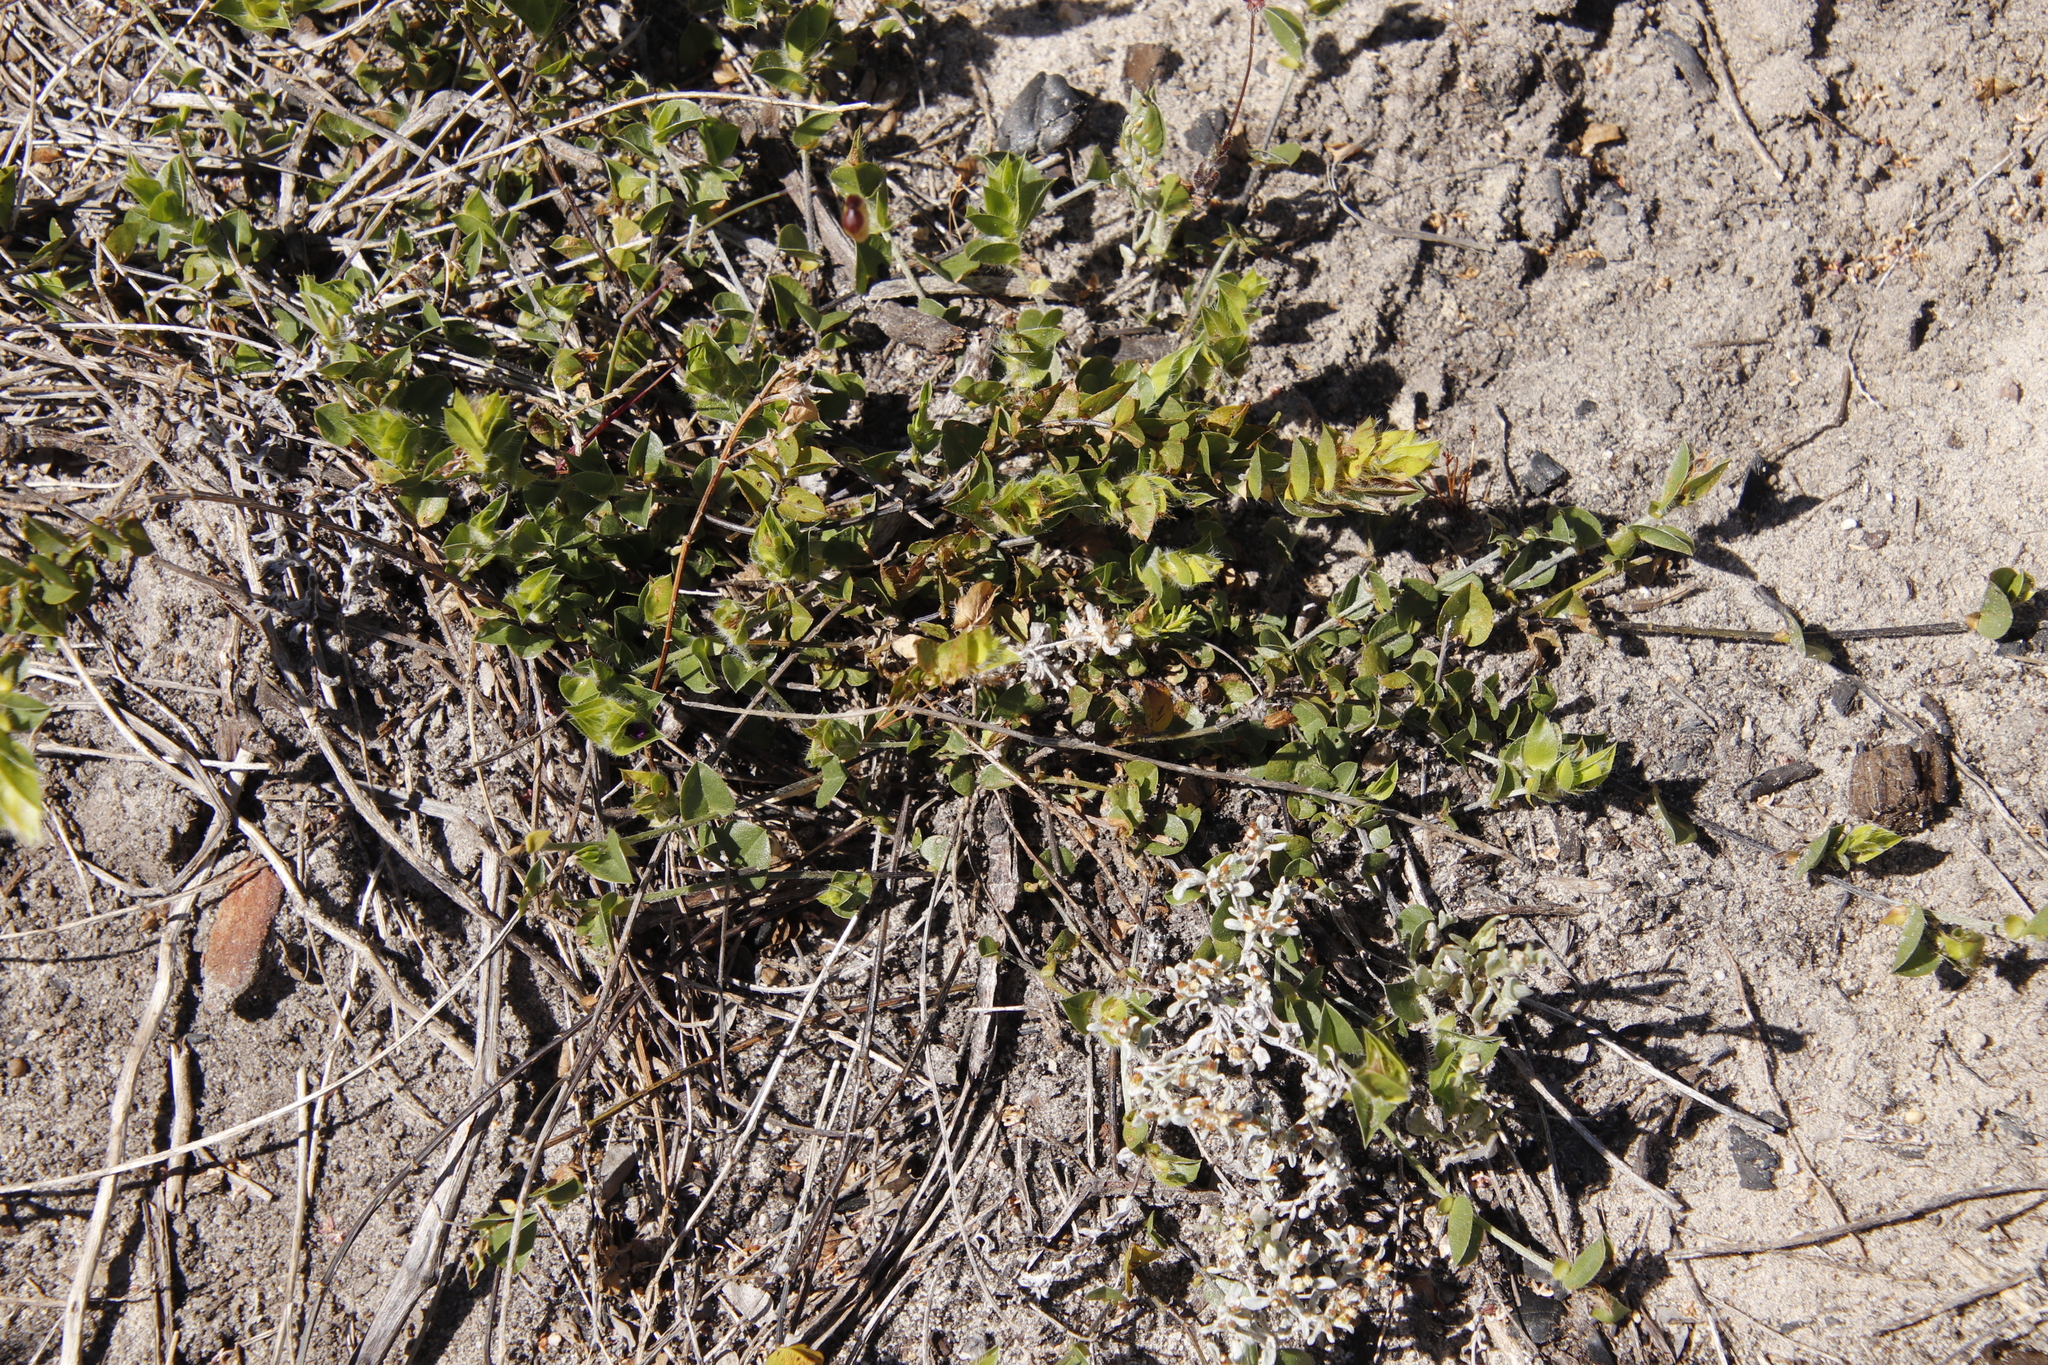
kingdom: Plantae
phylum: Tracheophyta
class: Magnoliopsida
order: Fabales
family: Fabaceae
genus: Psoralea
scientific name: Psoralea imbricata
